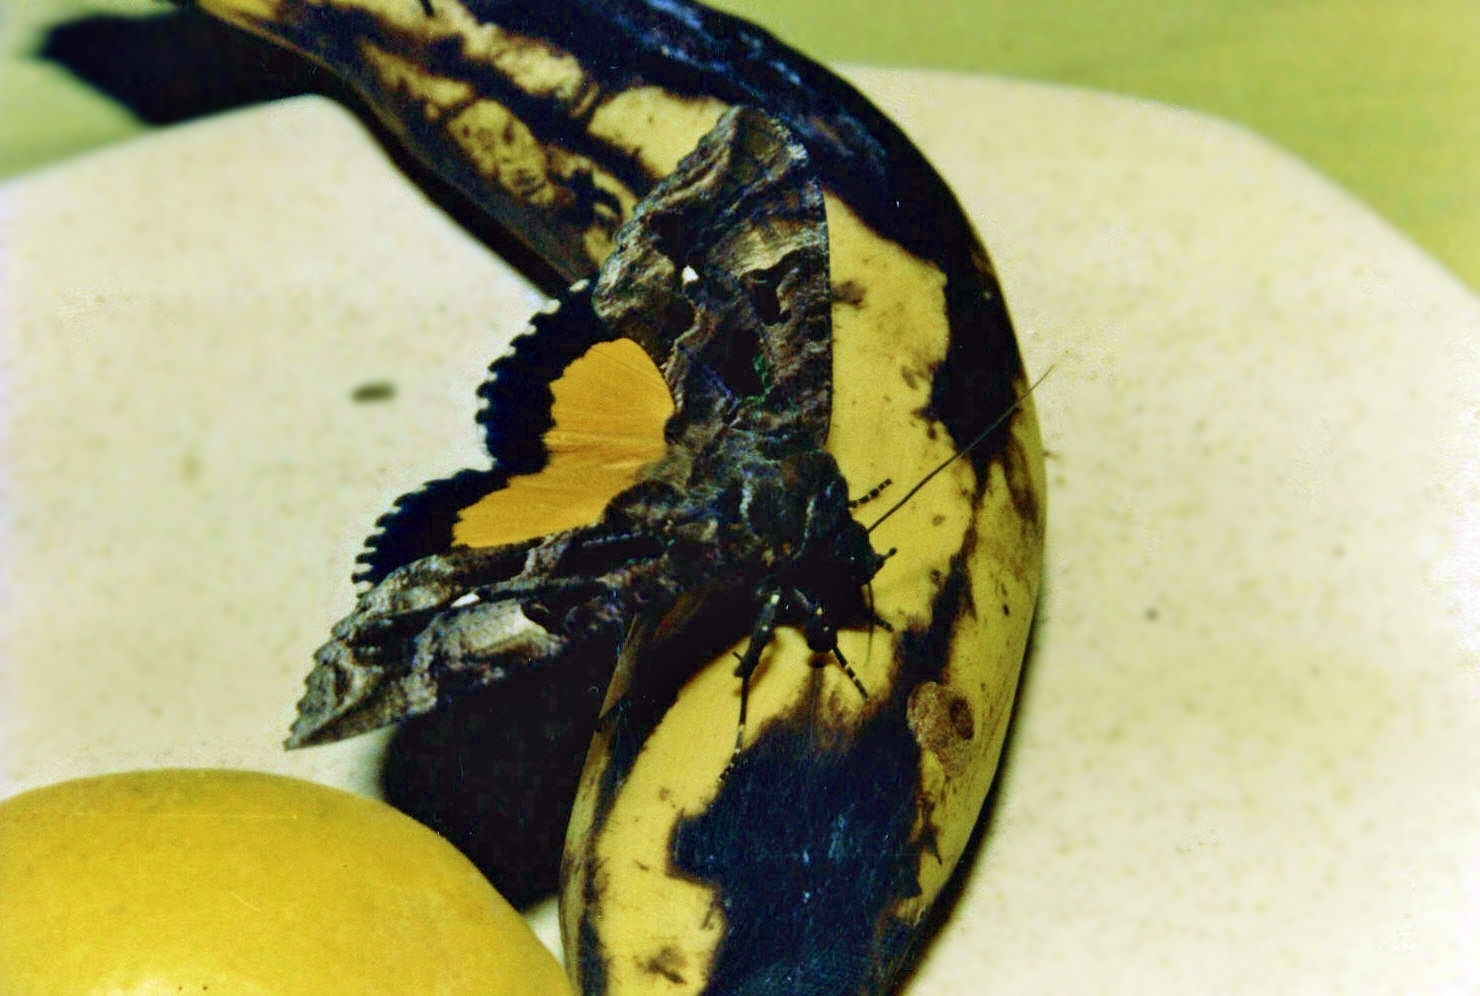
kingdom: Animalia
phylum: Arthropoda
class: Insecta
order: Lepidoptera
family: Erebidae
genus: Eudocima
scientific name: Eudocima divitiosa
